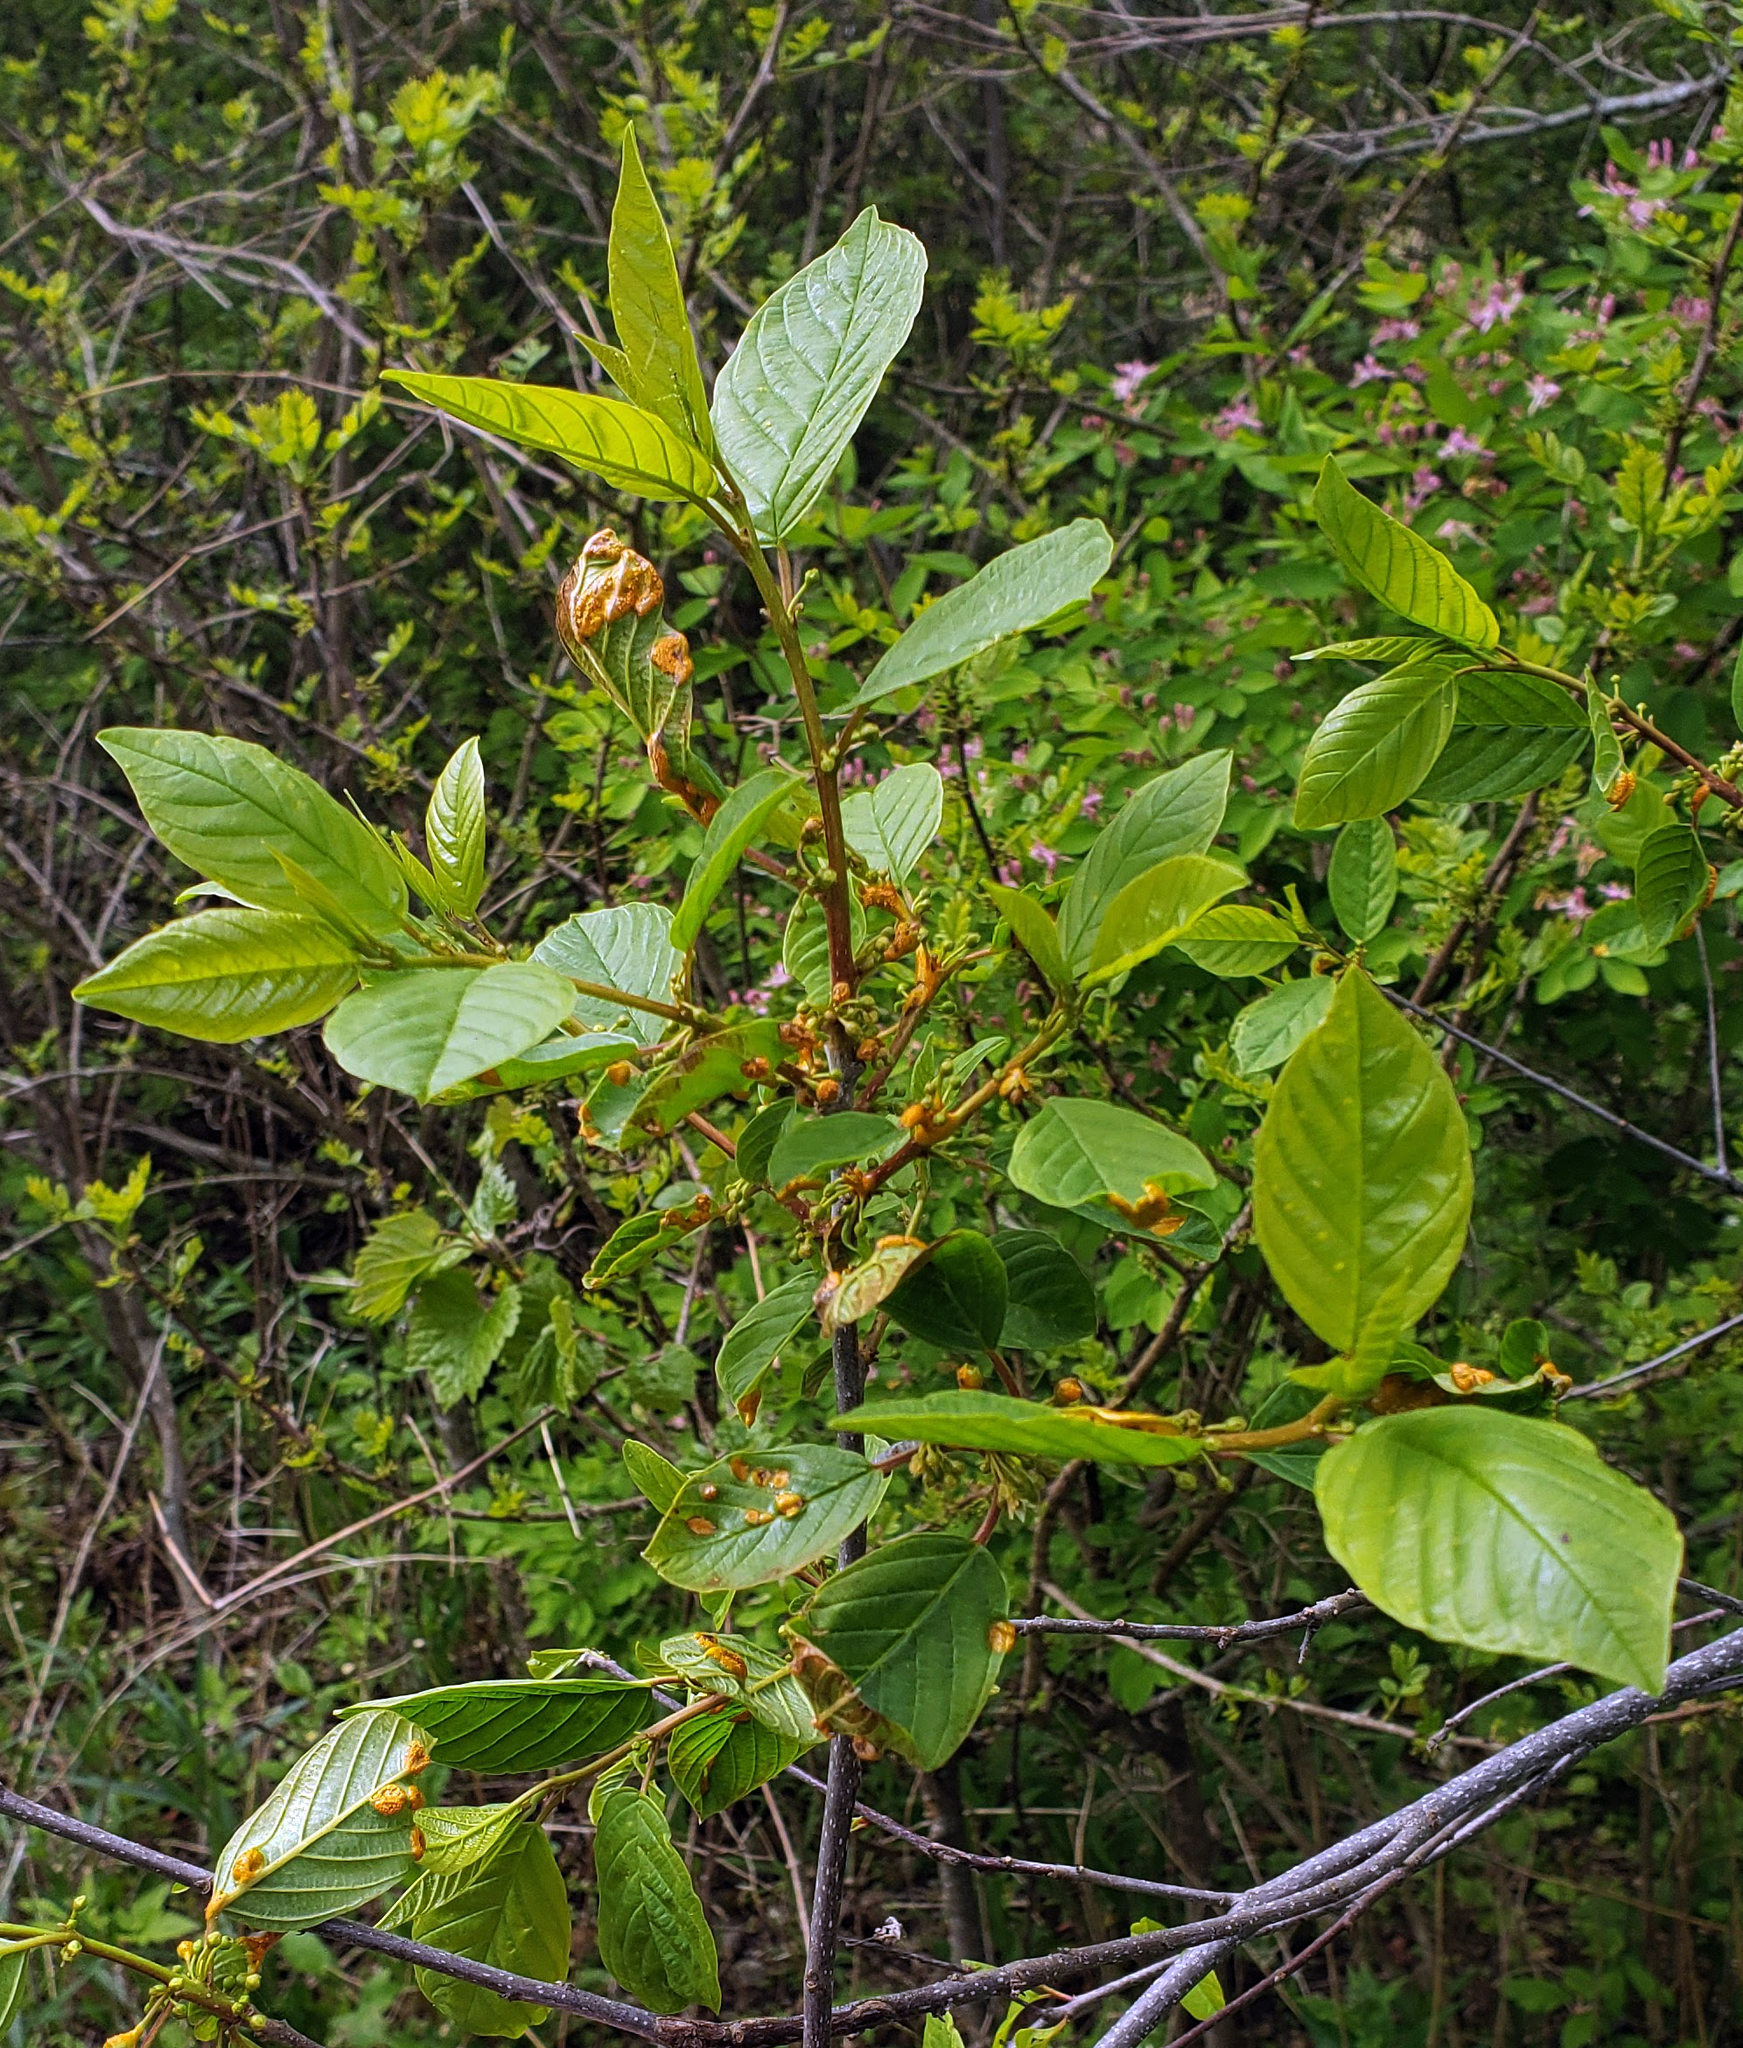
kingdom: Plantae
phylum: Tracheophyta
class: Magnoliopsida
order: Rosales
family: Rhamnaceae
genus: Frangula
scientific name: Frangula alnus
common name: Alder buckthorn
